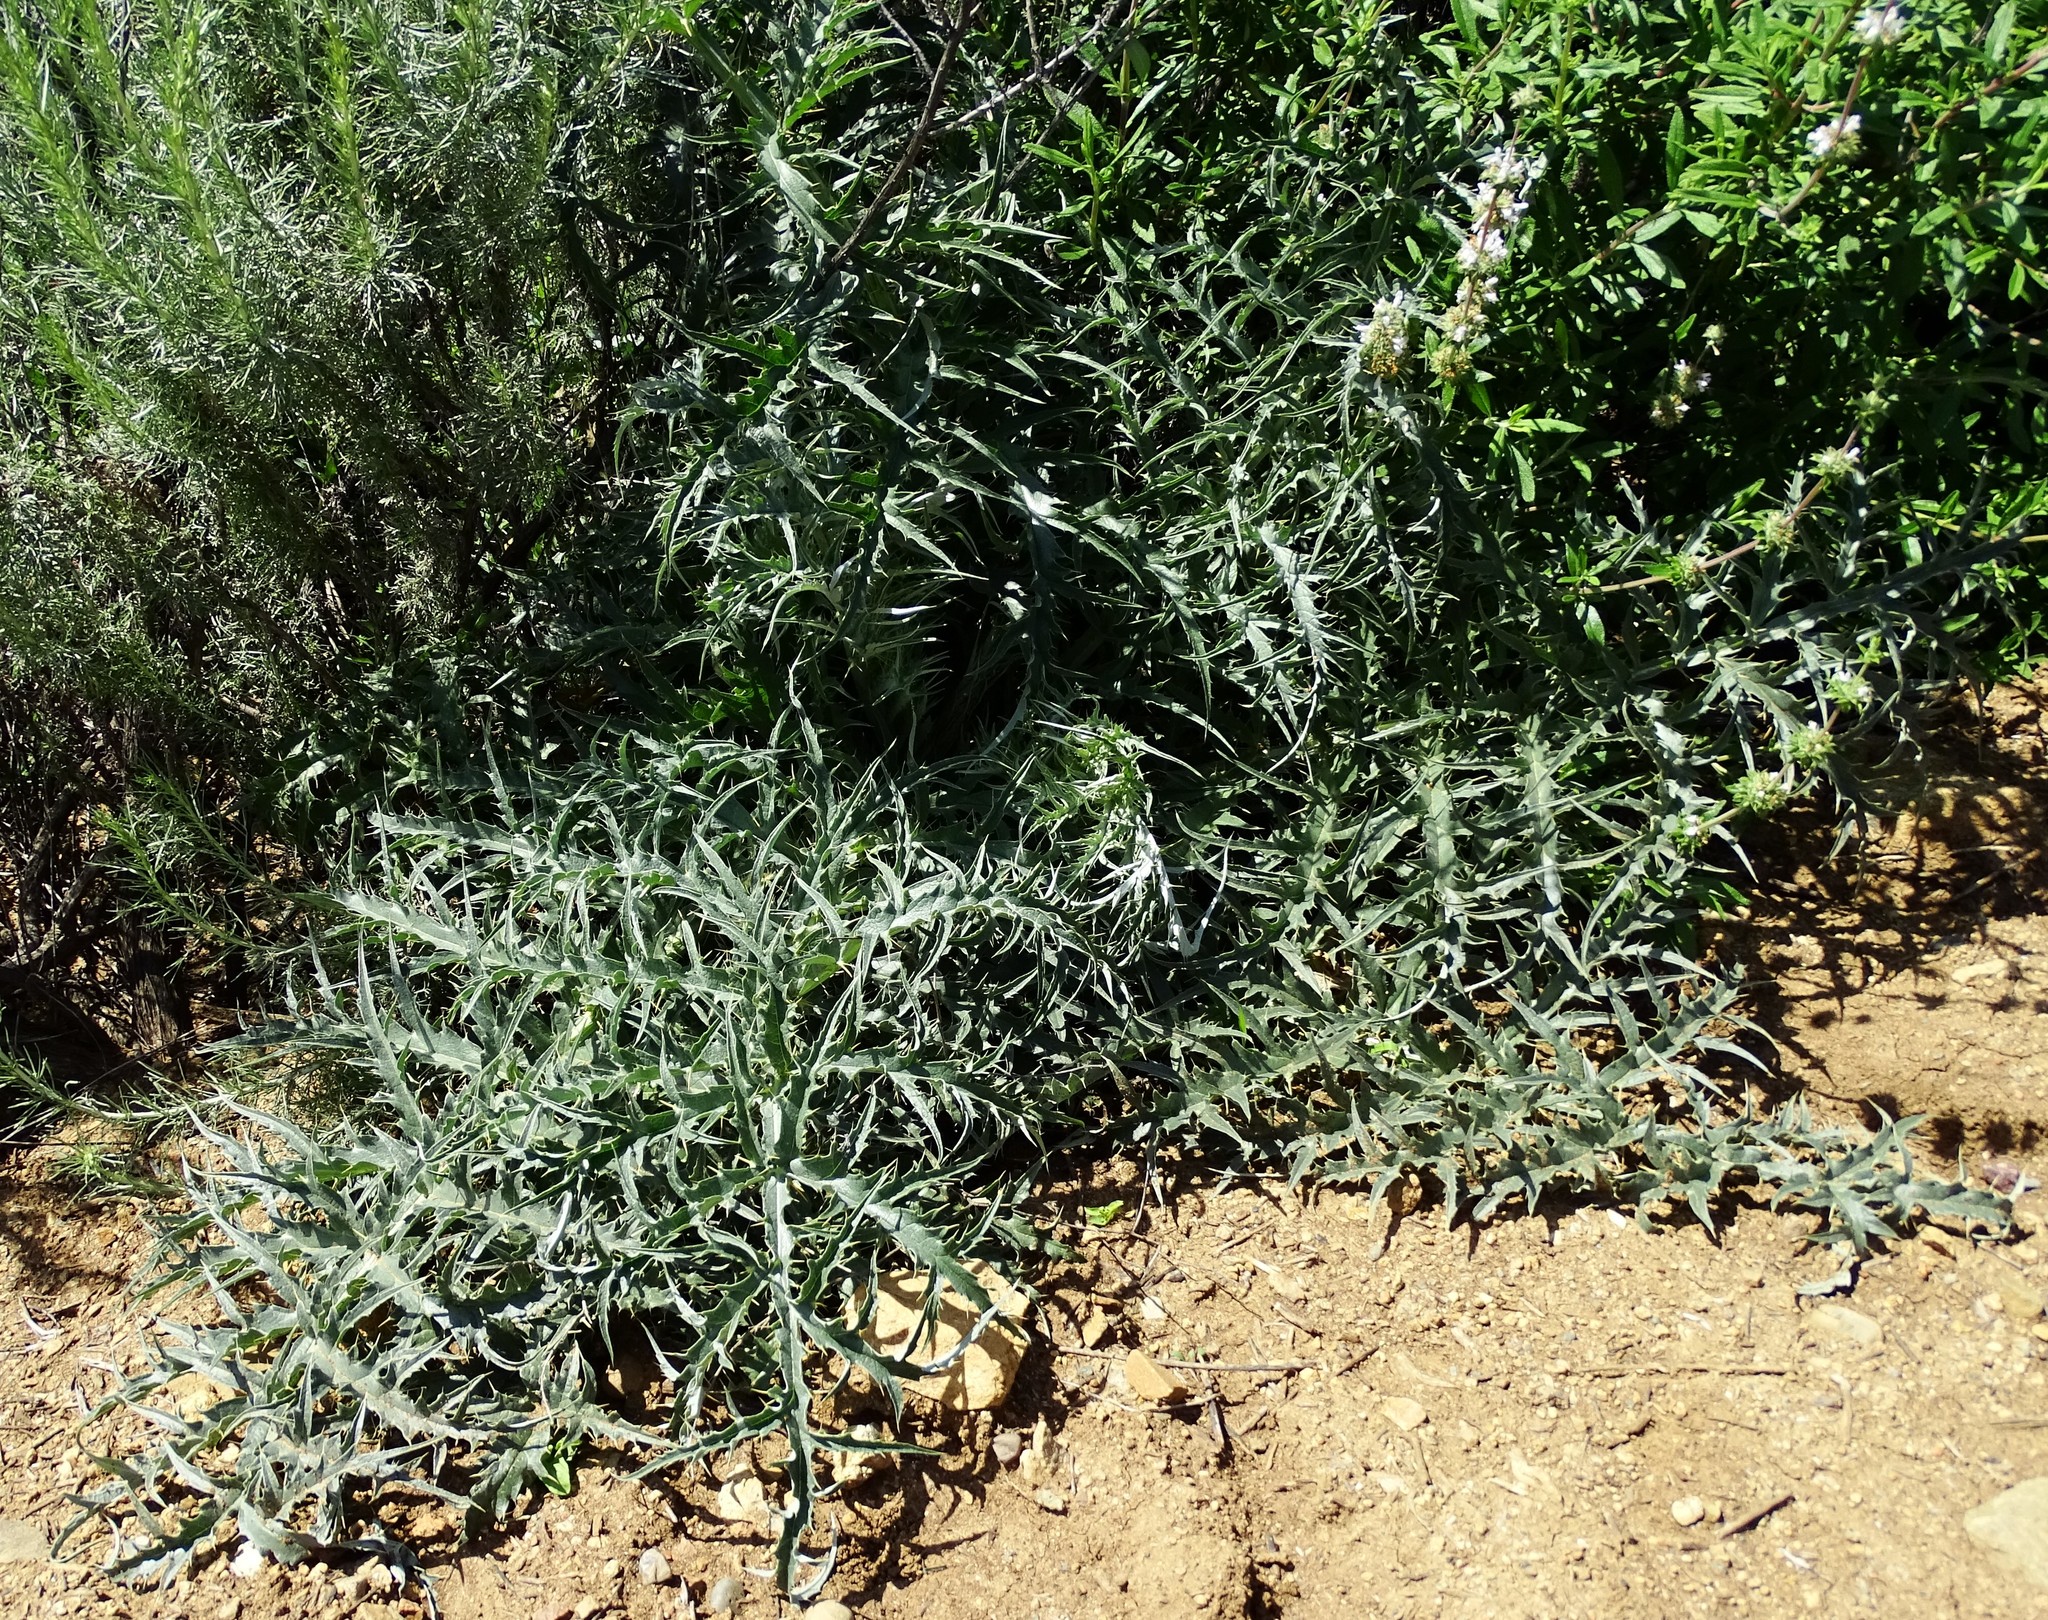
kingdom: Plantae
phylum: Tracheophyta
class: Magnoliopsida
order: Asterales
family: Asteraceae
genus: Cynara
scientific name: Cynara cardunculus
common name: Globe artichoke
